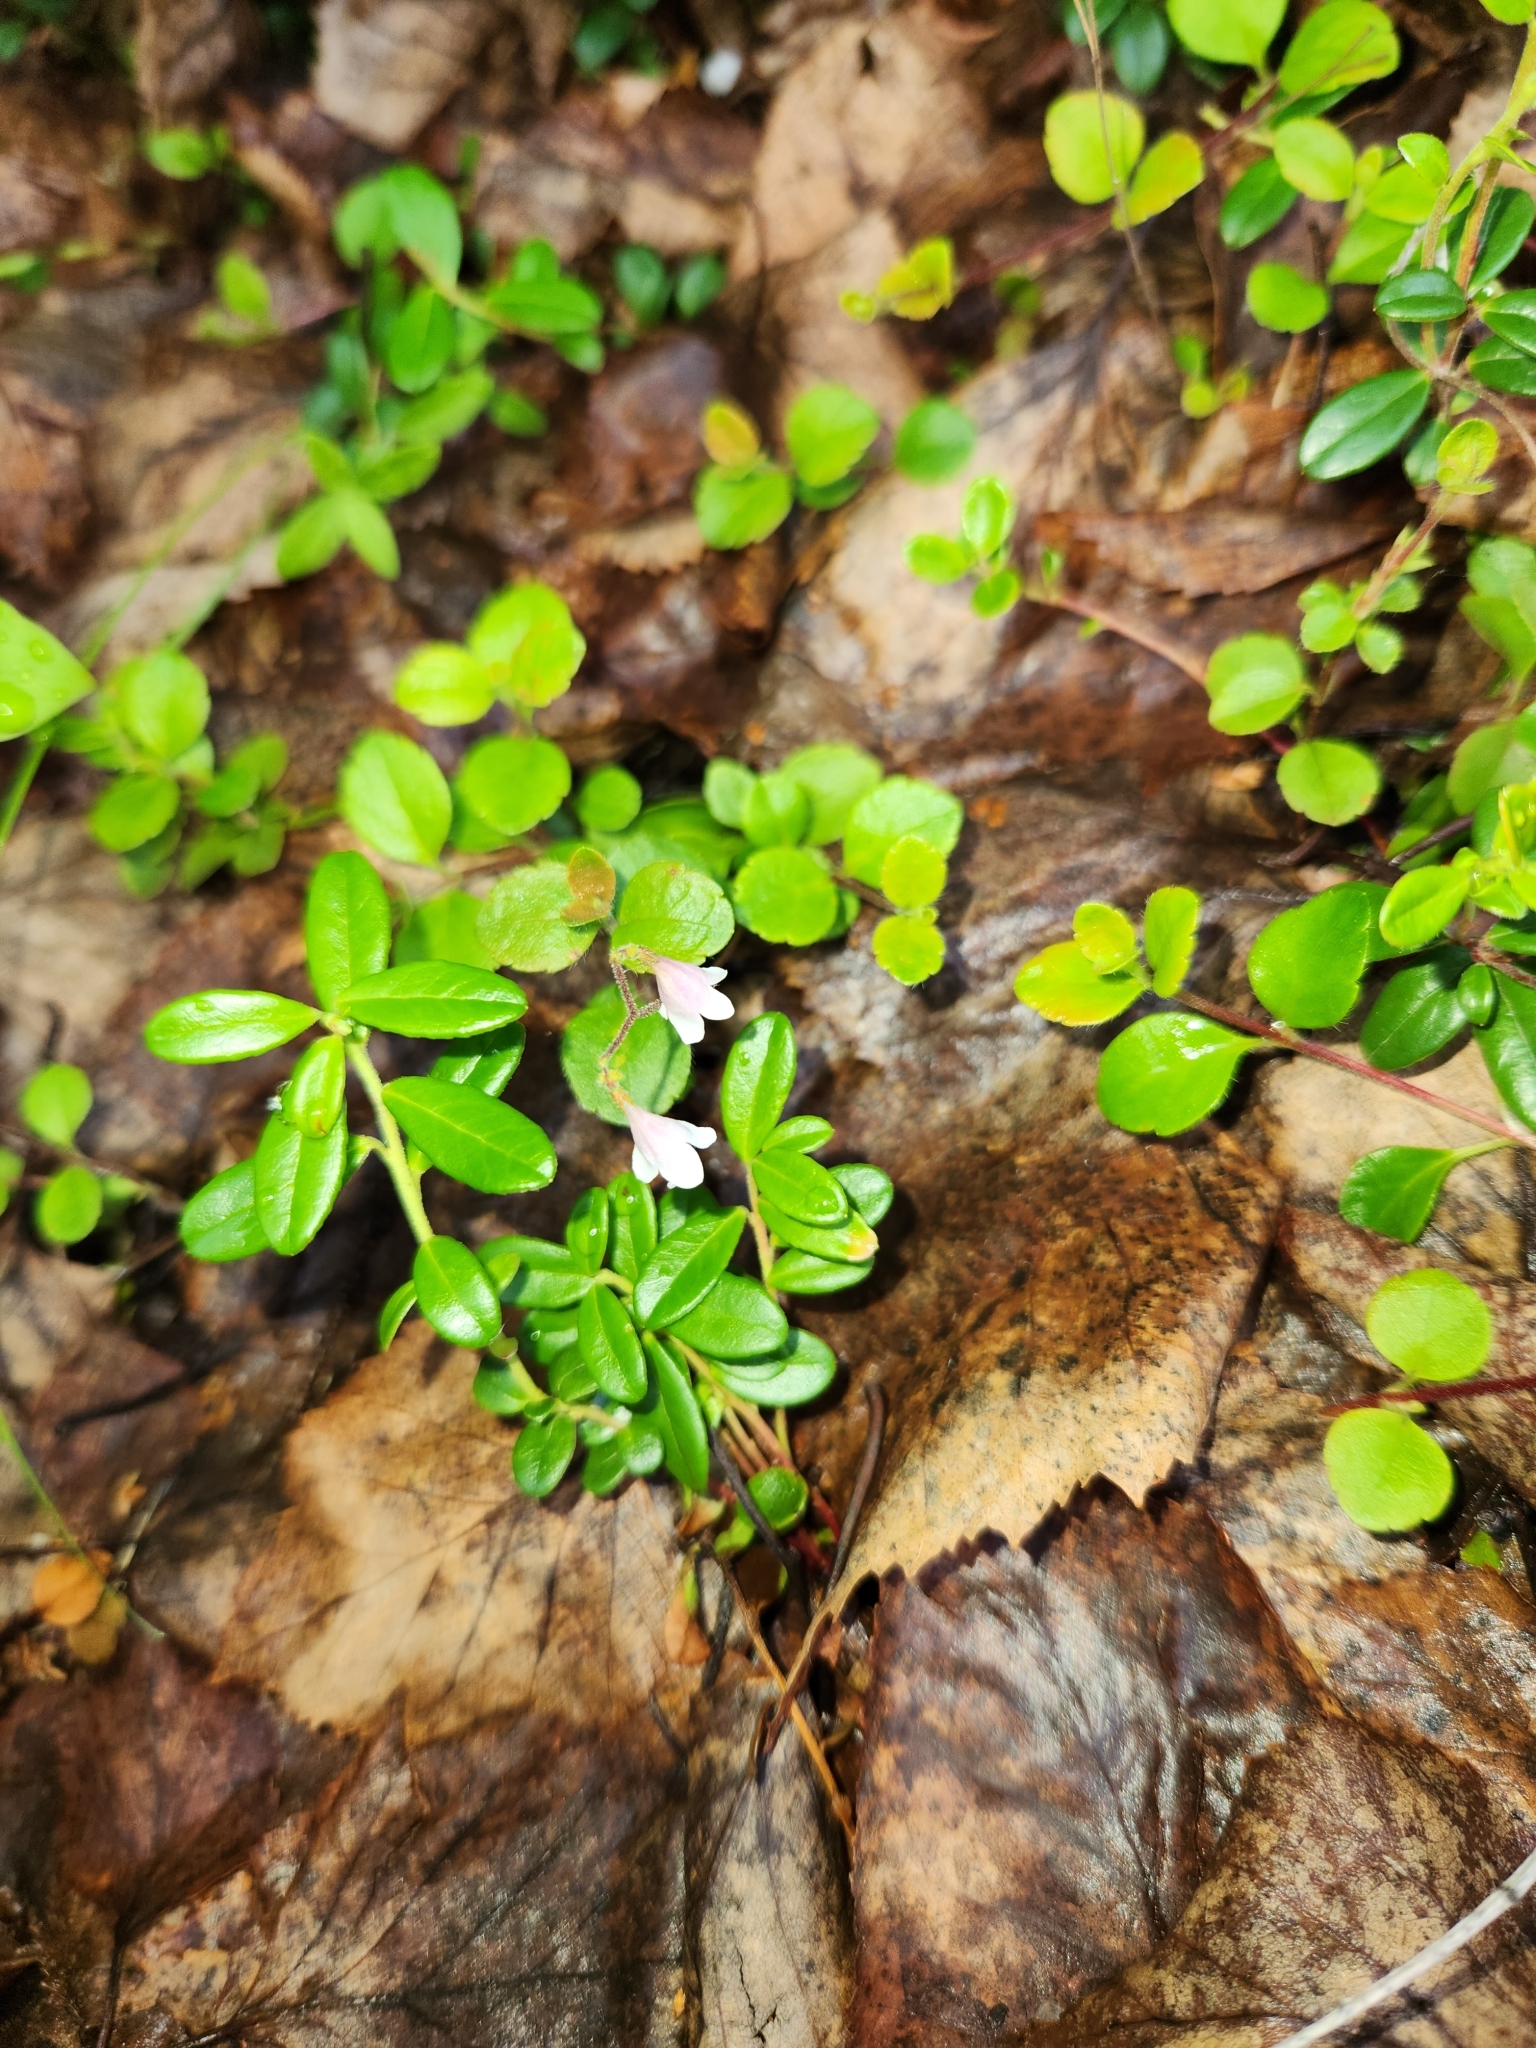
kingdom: Plantae
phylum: Tracheophyta
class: Magnoliopsida
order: Dipsacales
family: Caprifoliaceae
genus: Linnaea
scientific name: Linnaea borealis
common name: Twinflower
